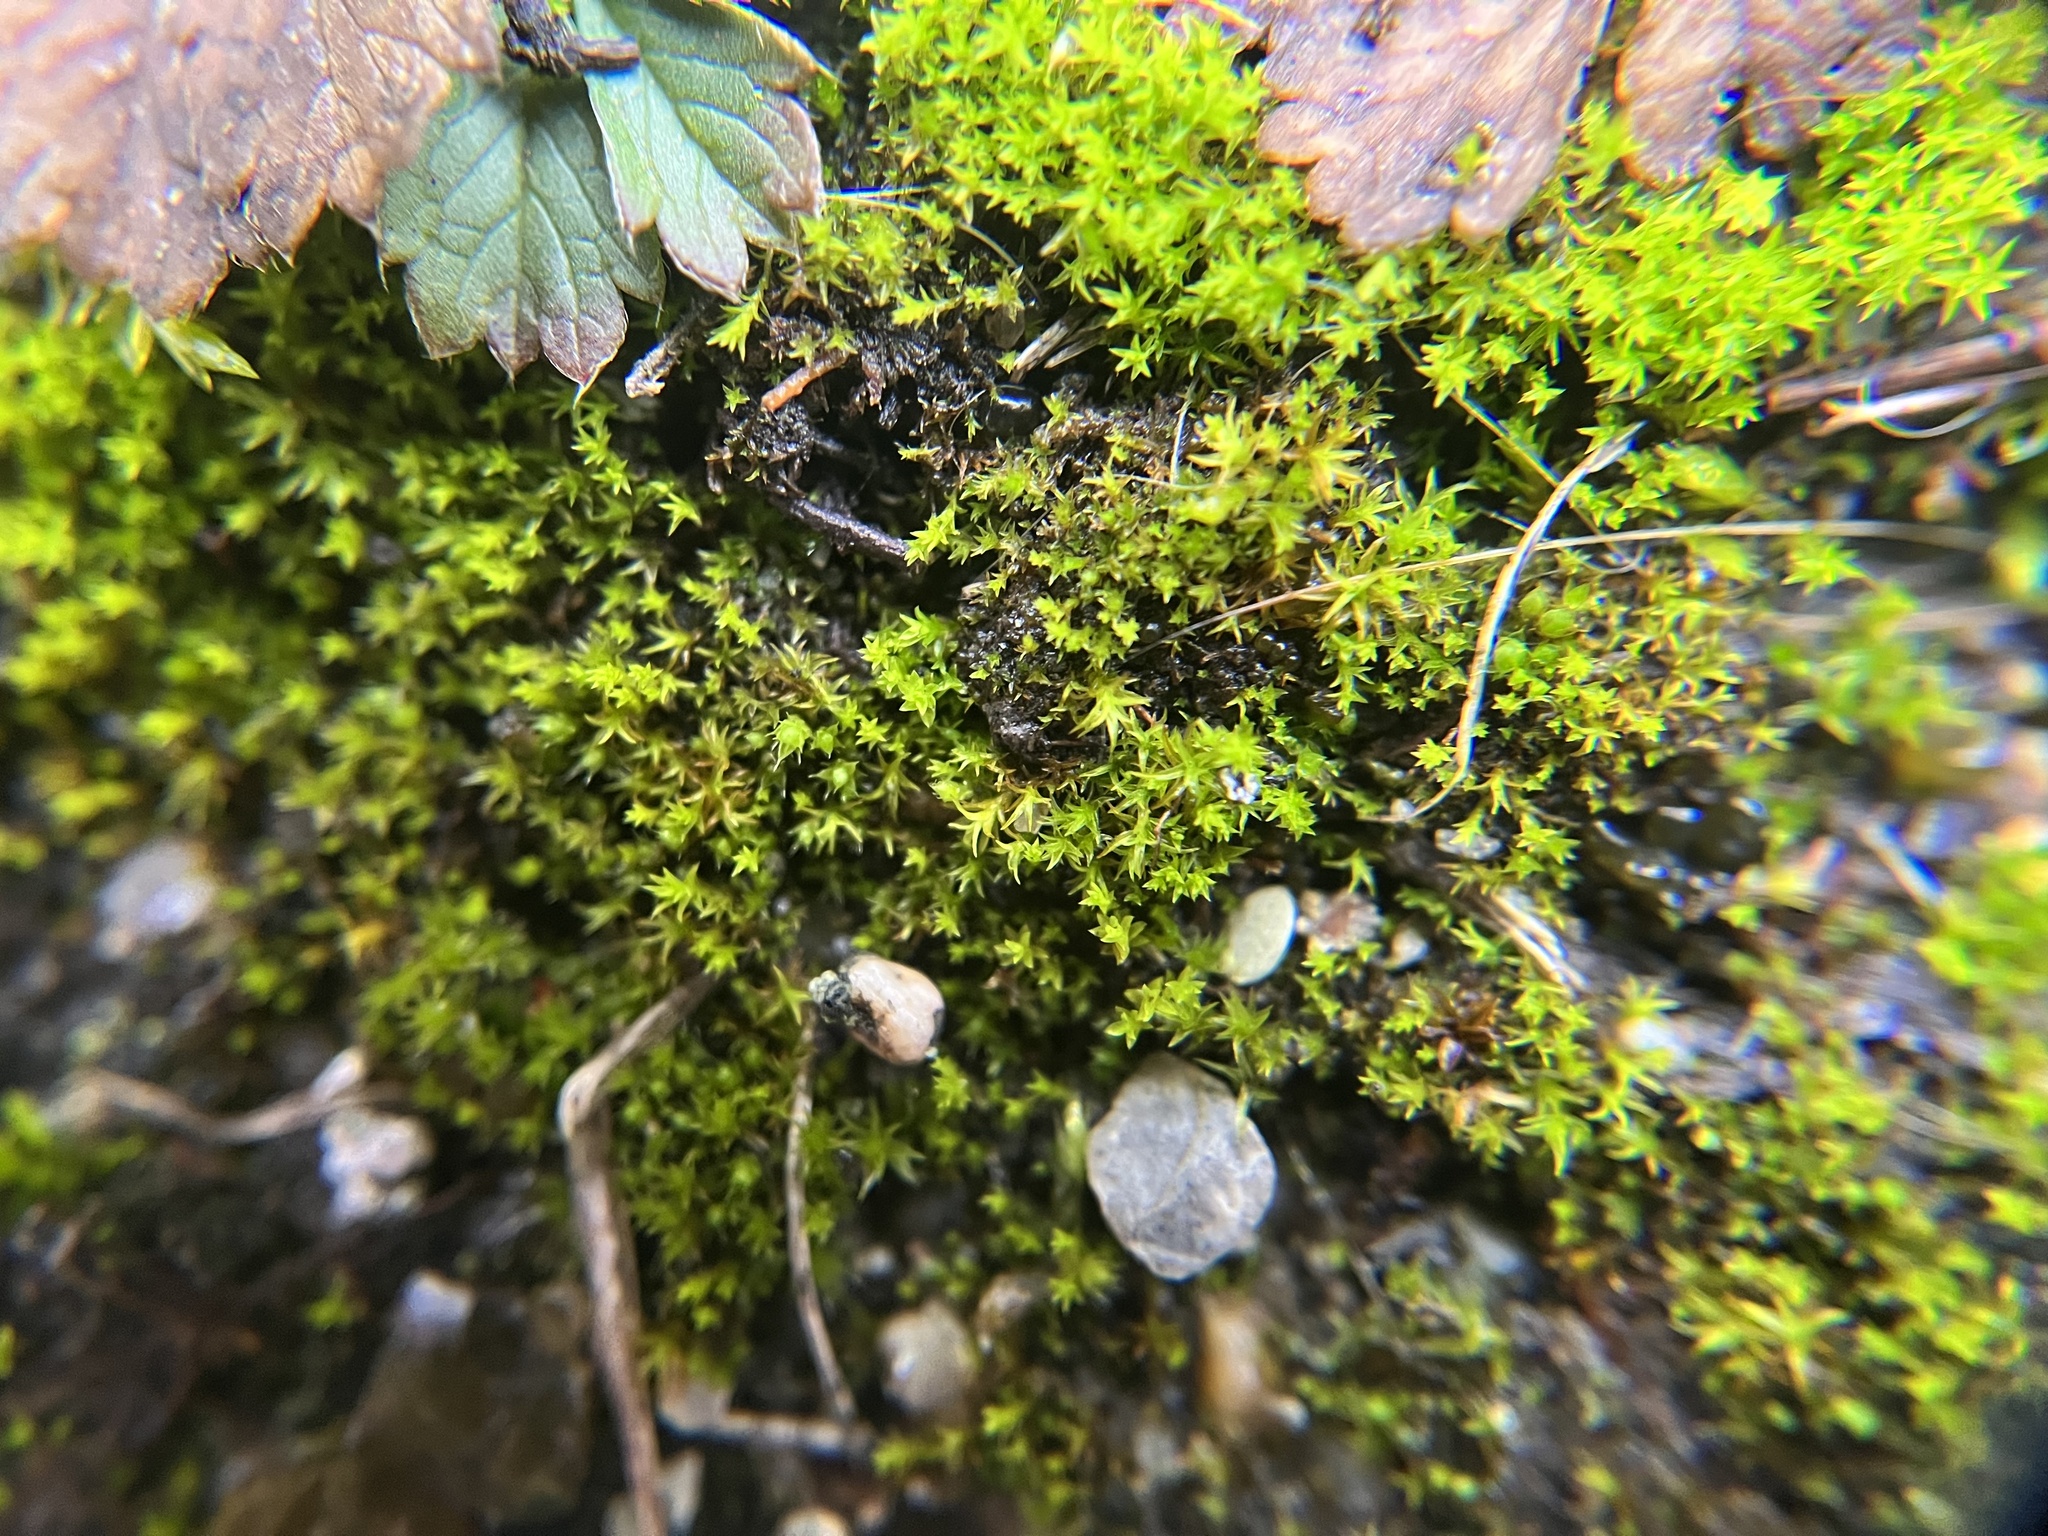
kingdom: Plantae
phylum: Bryophyta
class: Bryopsida
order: Pottiales
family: Pottiaceae
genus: Pseudocrossidium
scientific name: Pseudocrossidium hornschuchianum
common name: Hornschuch's beard-moss
